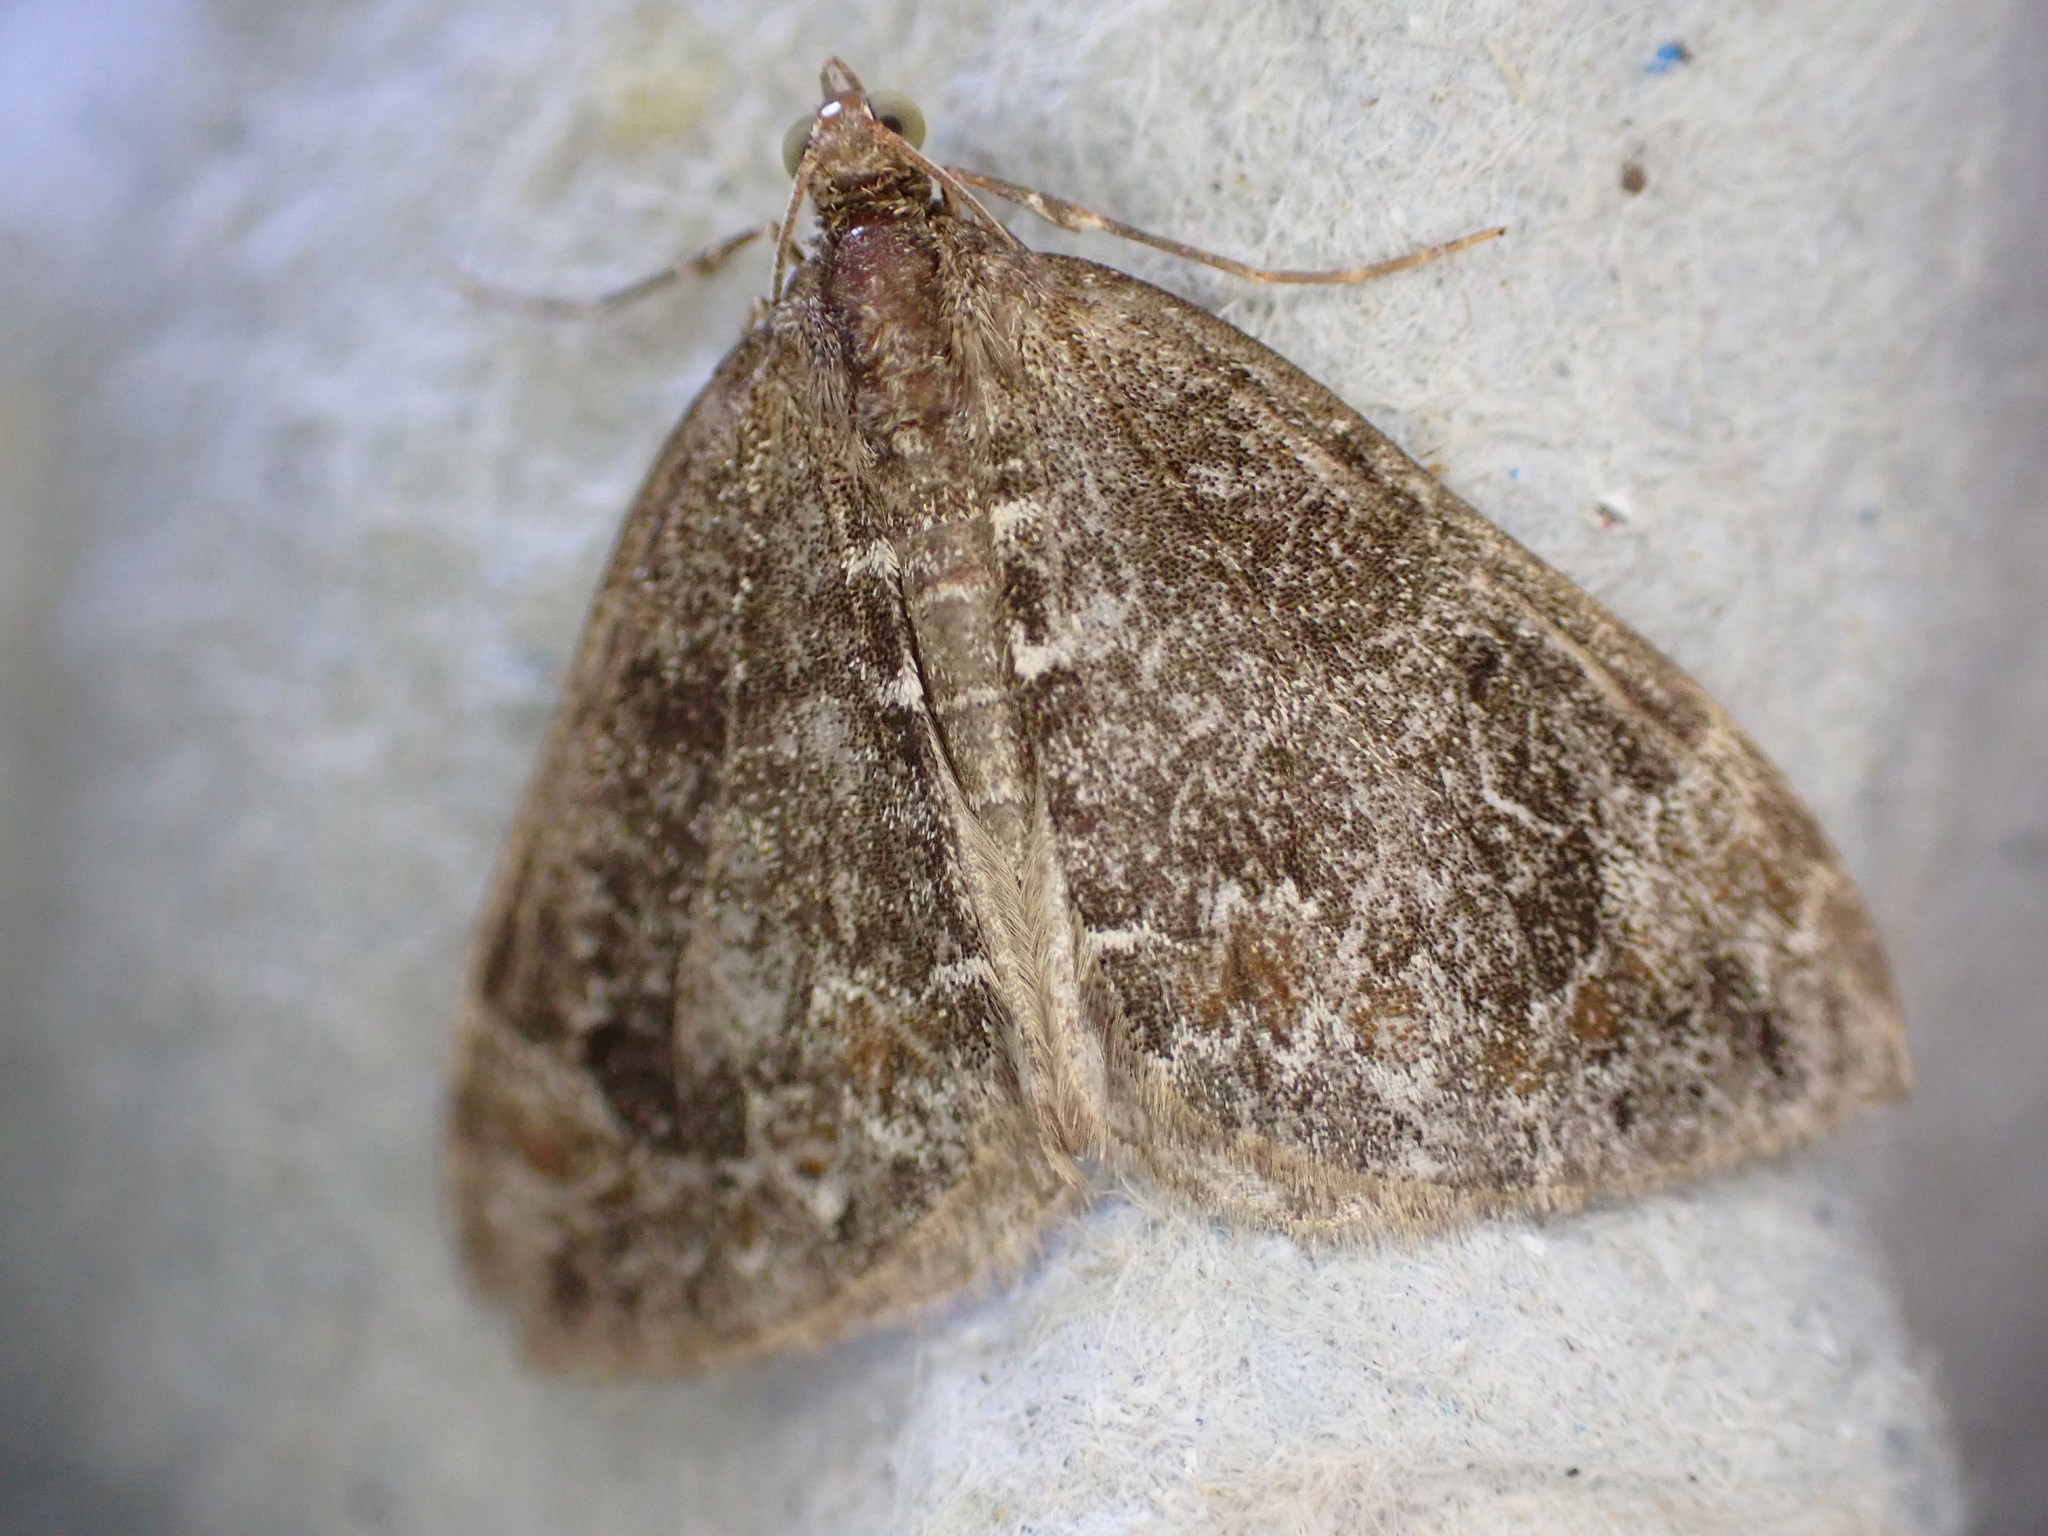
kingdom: Animalia
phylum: Arthropoda
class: Insecta
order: Lepidoptera
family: Geometridae
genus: Dysstroma
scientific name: Dysstroma truncata
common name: Common marbled carpet
